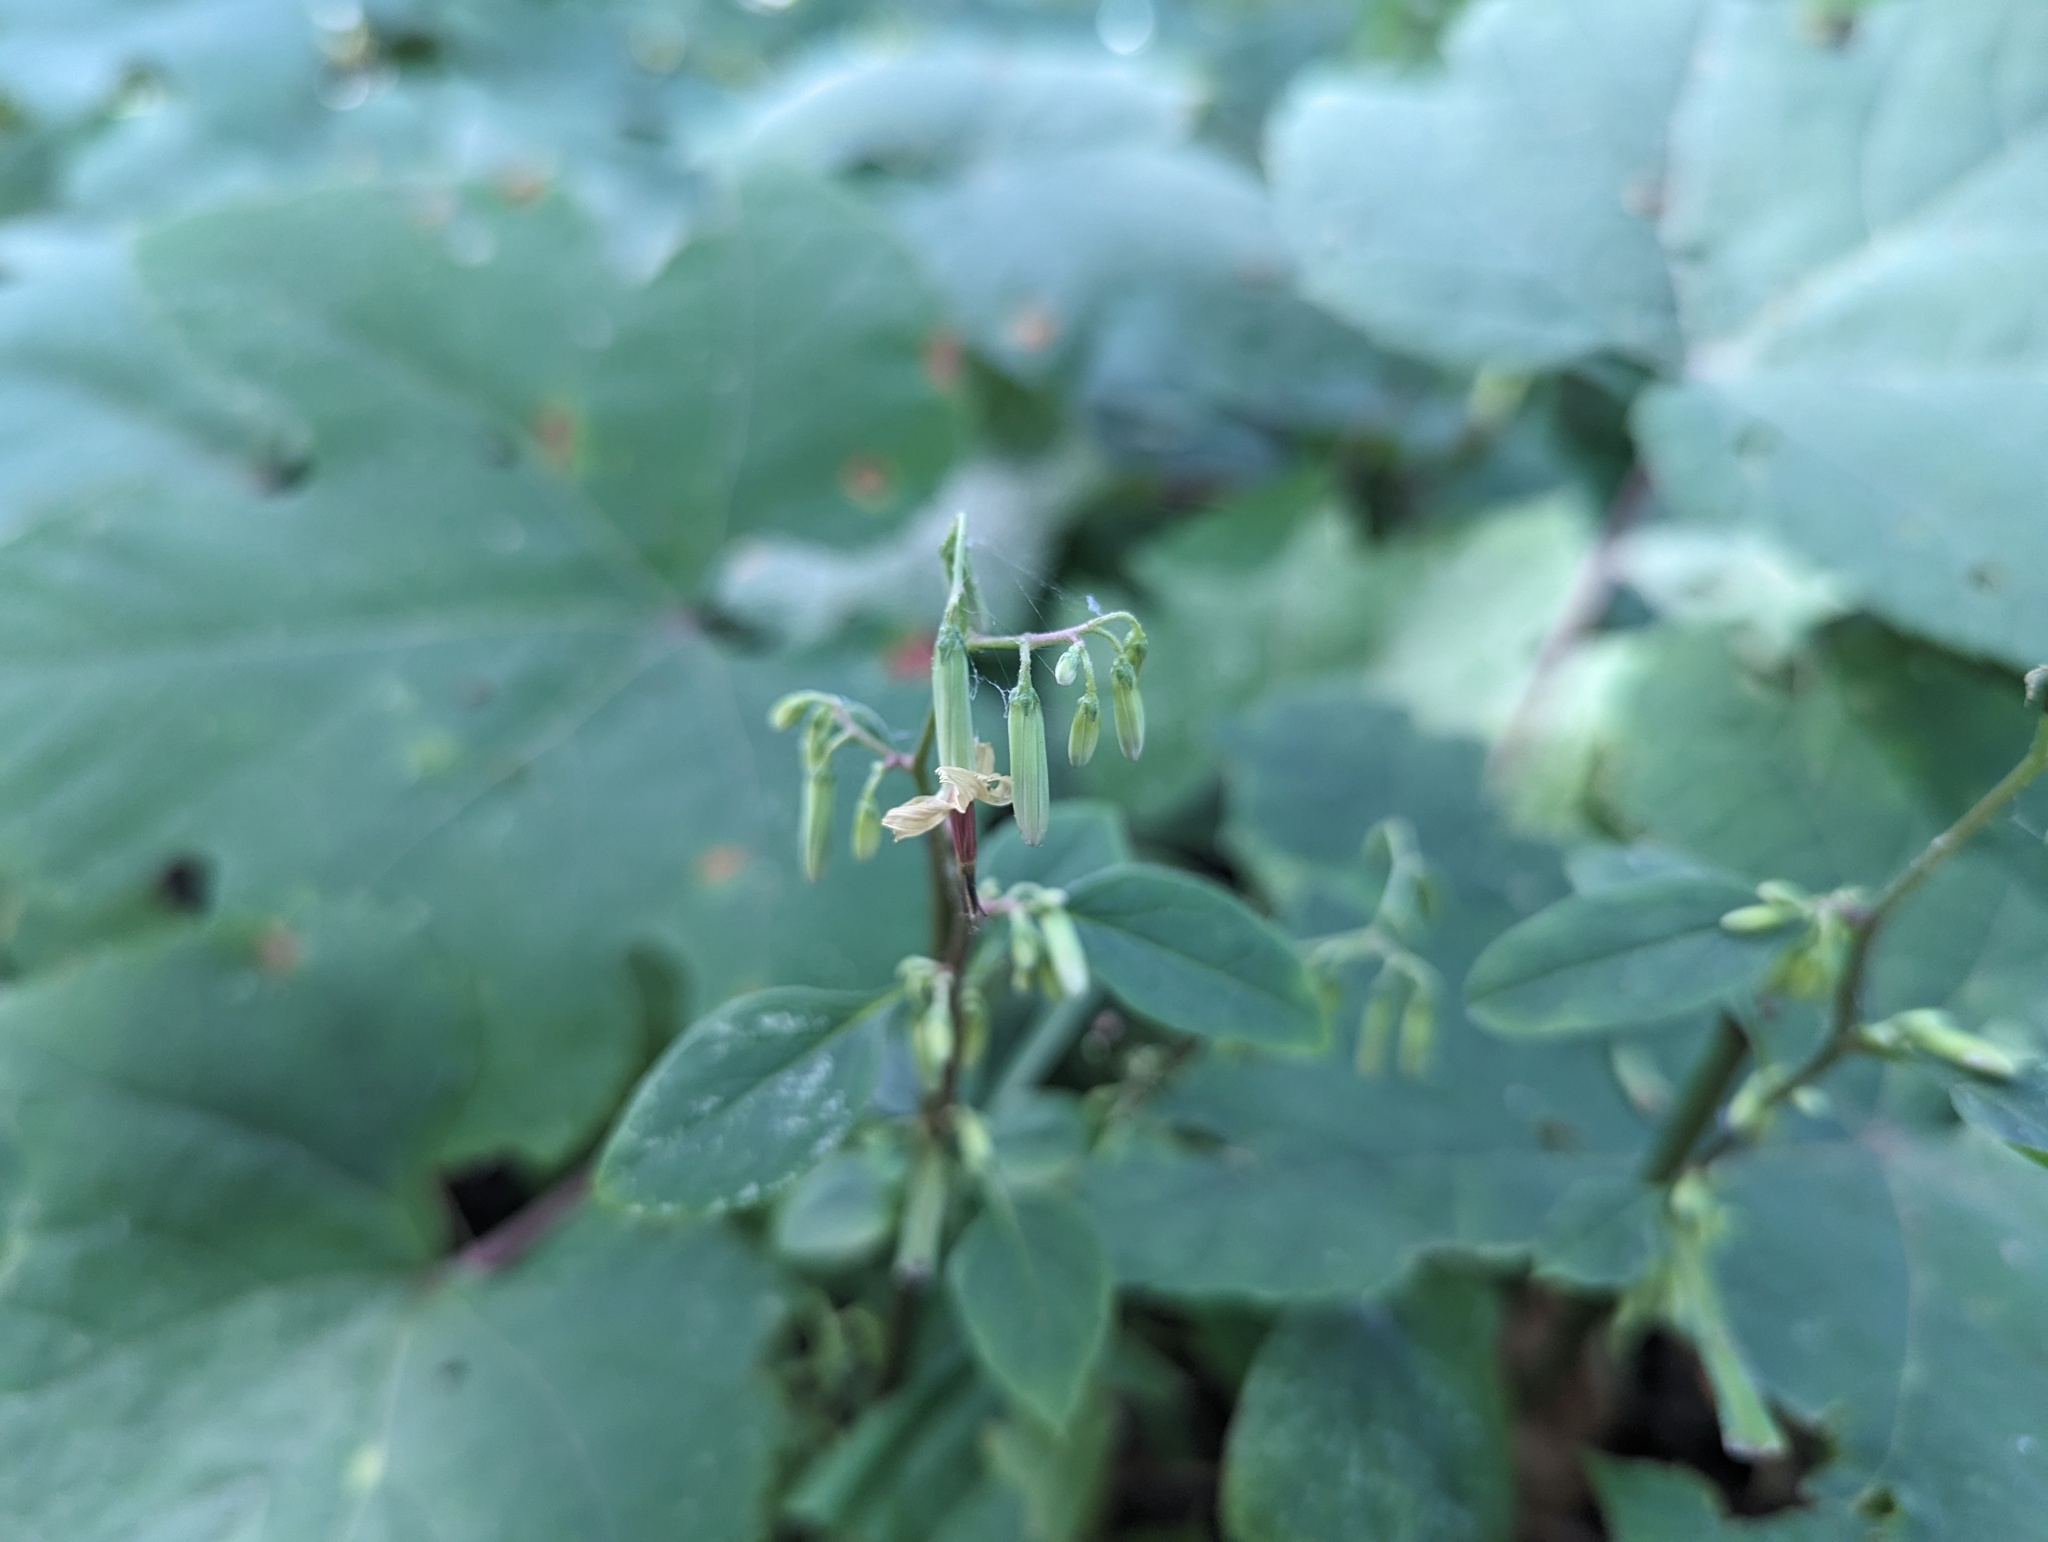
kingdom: Plantae
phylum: Tracheophyta
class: Magnoliopsida
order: Asterales
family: Asteraceae
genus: Nabalus
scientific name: Nabalus altissima
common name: Tall rattlesnakeroot
